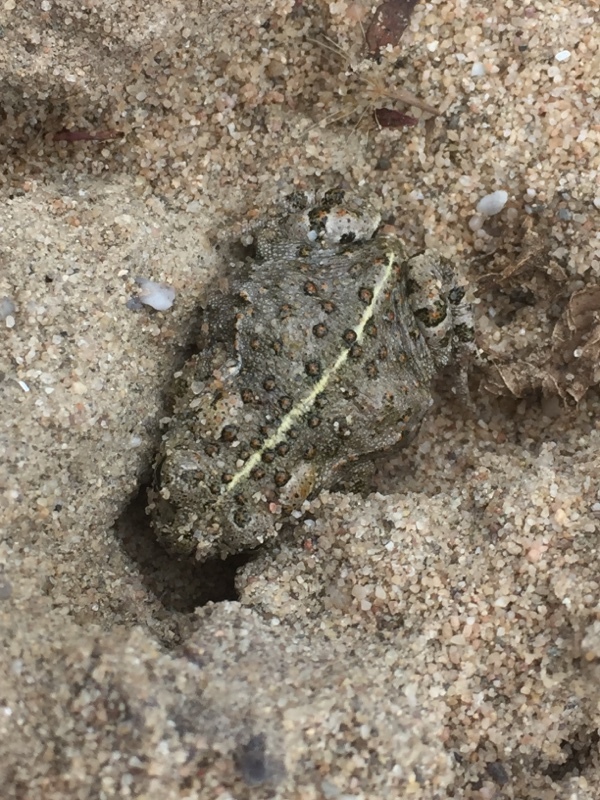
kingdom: Animalia
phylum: Chordata
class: Amphibia
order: Anura
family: Bufonidae
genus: Epidalea
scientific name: Epidalea calamita
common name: Natterjack toad
